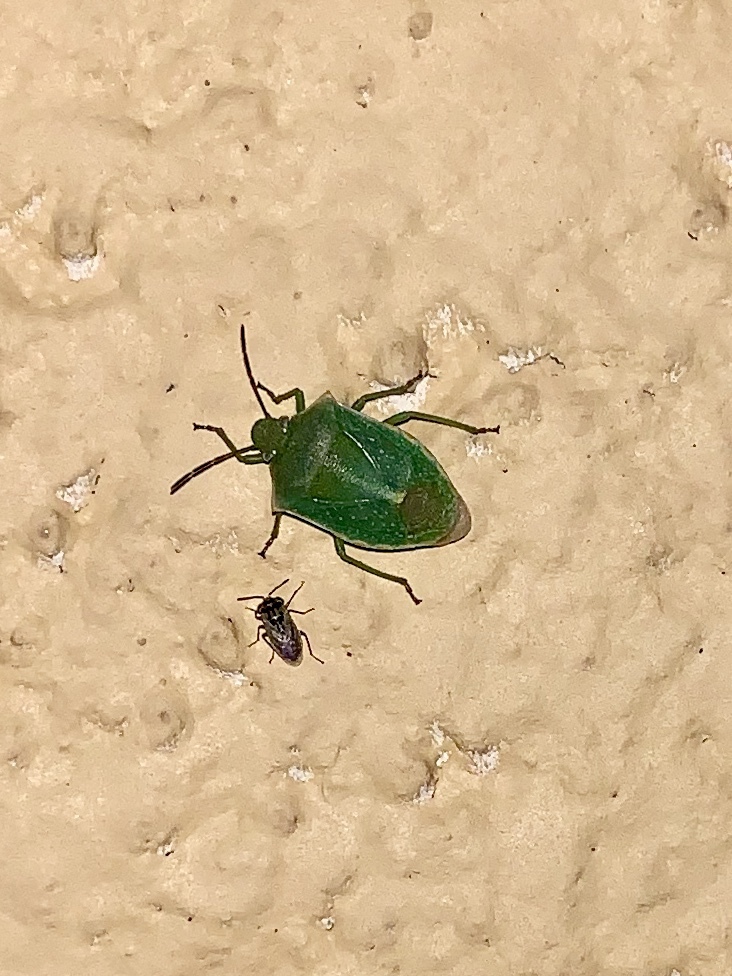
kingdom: Animalia
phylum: Arthropoda
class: Insecta
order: Hemiptera
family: Pentatomidae
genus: Thyanta
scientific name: Thyanta accerra
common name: Stink bug
